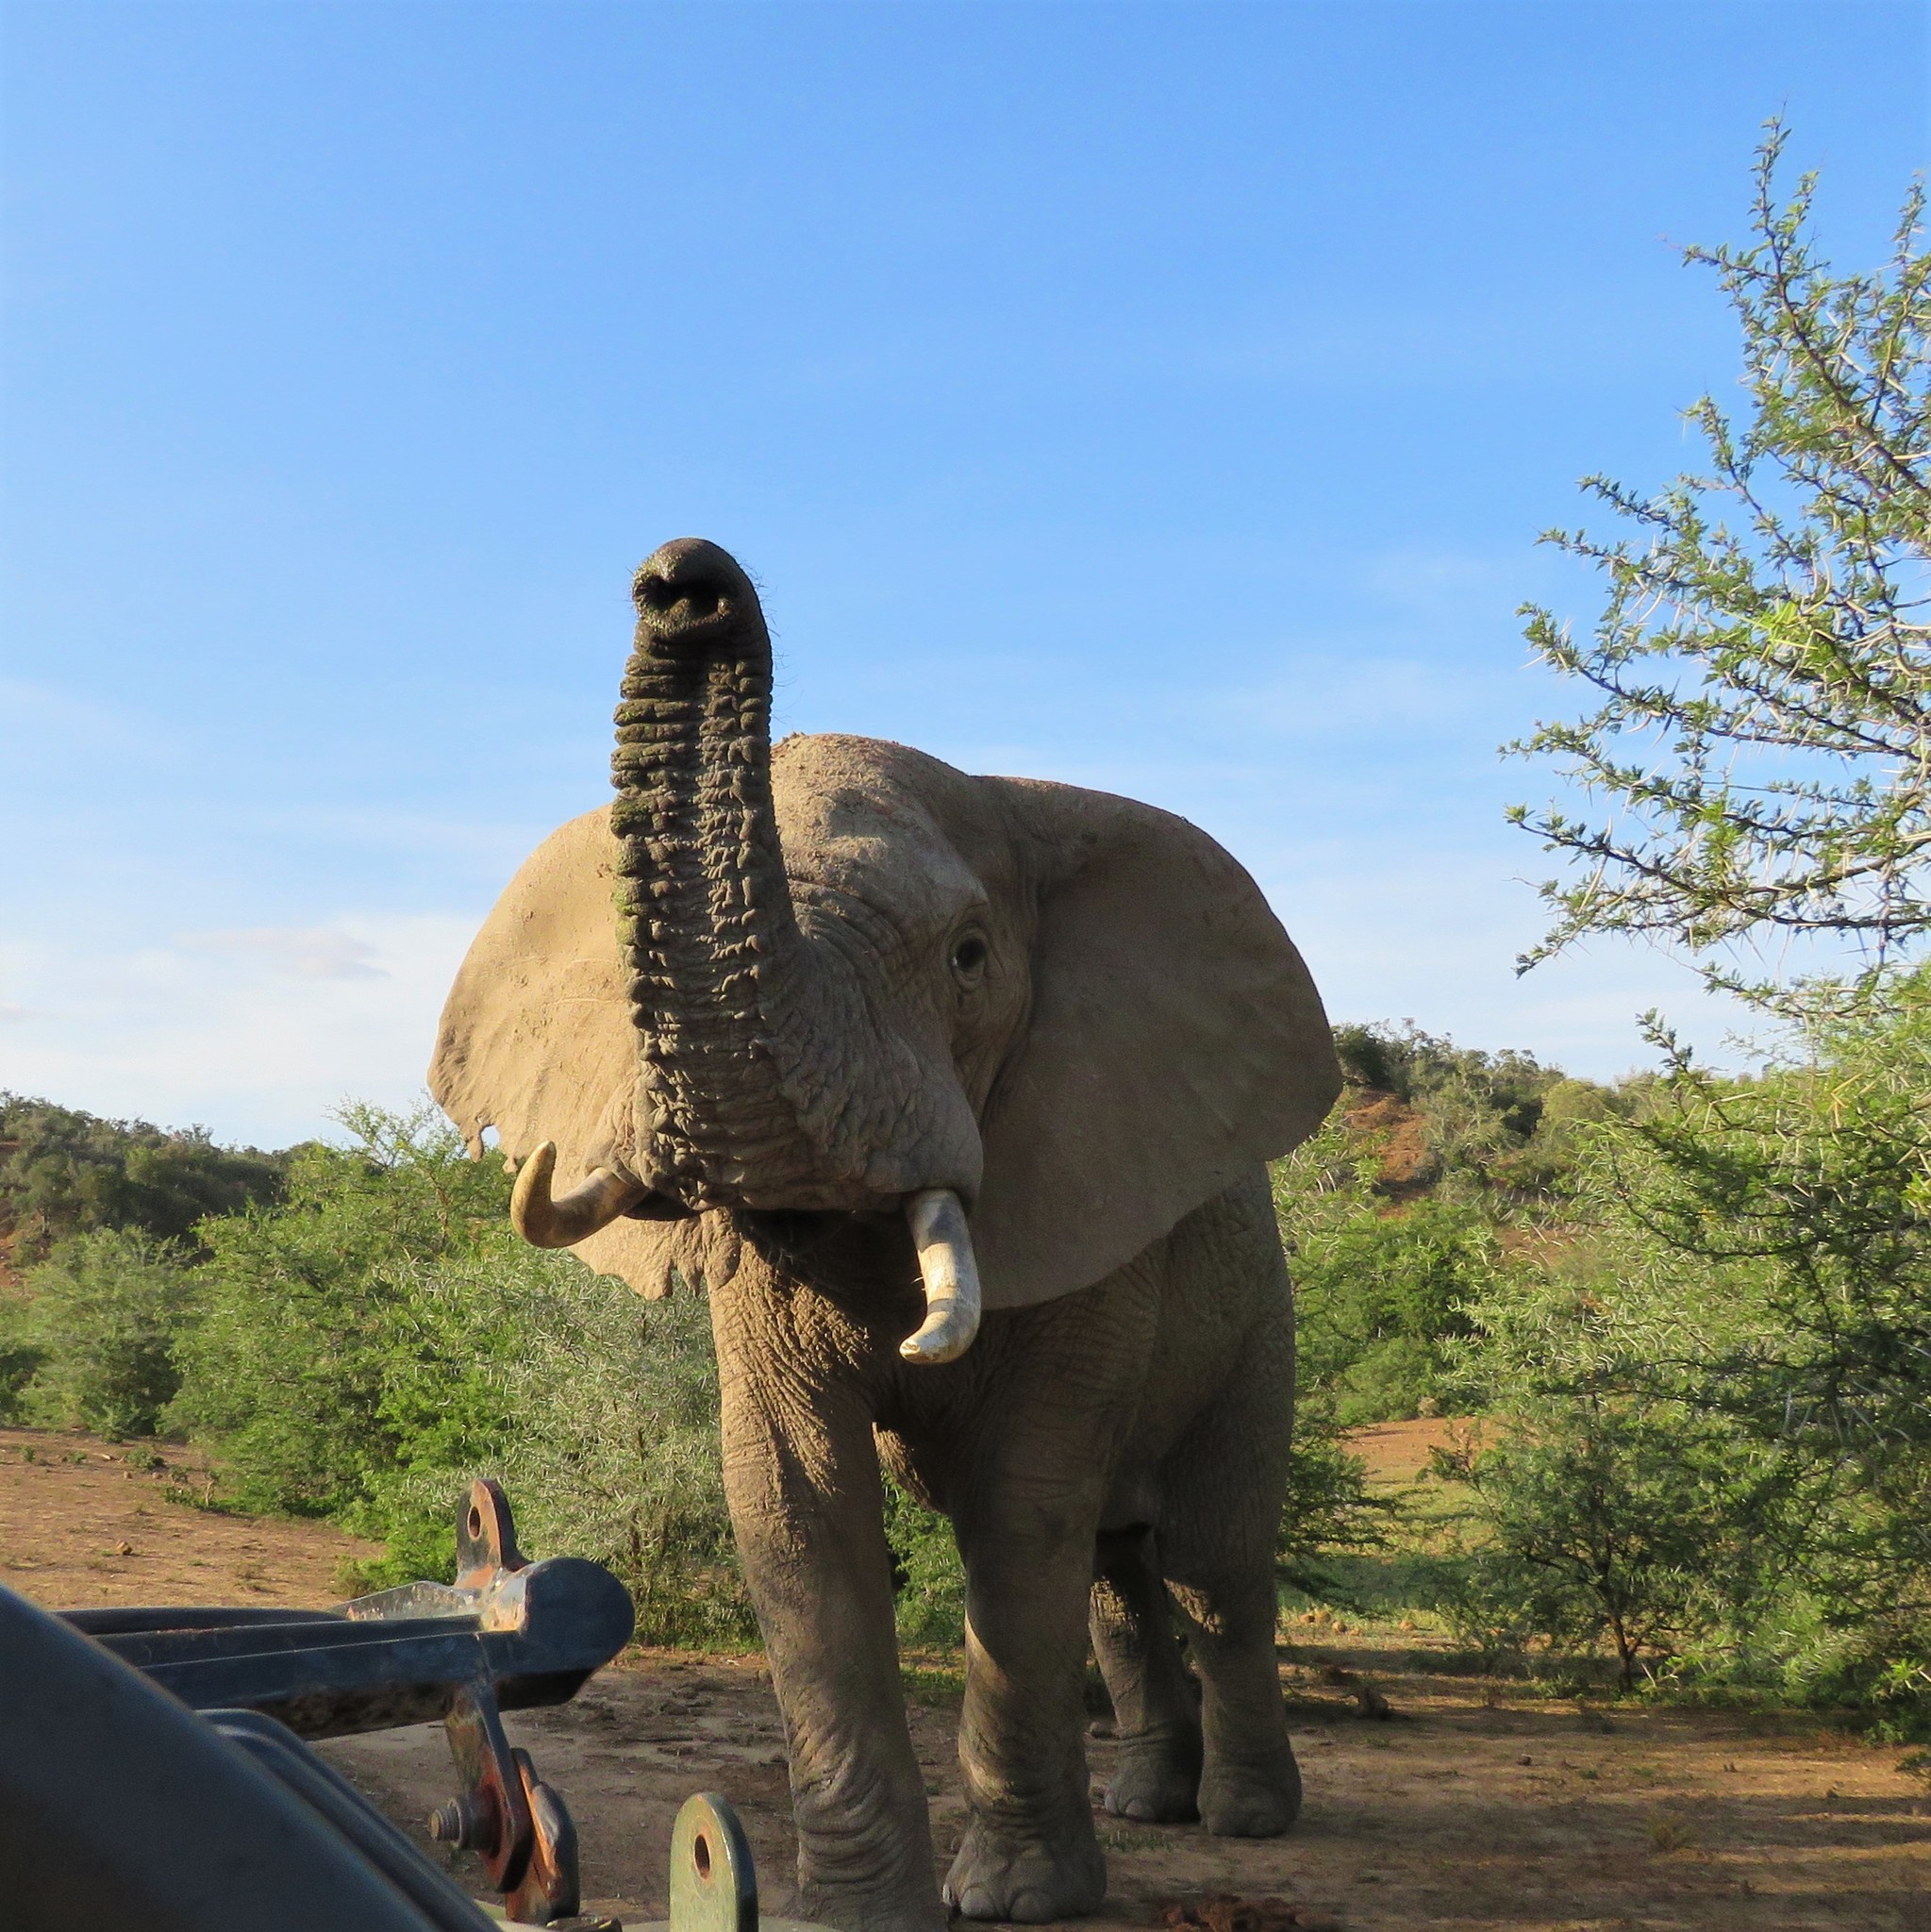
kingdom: Animalia
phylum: Chordata
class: Mammalia
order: Proboscidea
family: Elephantidae
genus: Loxodonta
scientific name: Loxodonta africana
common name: African elephant
